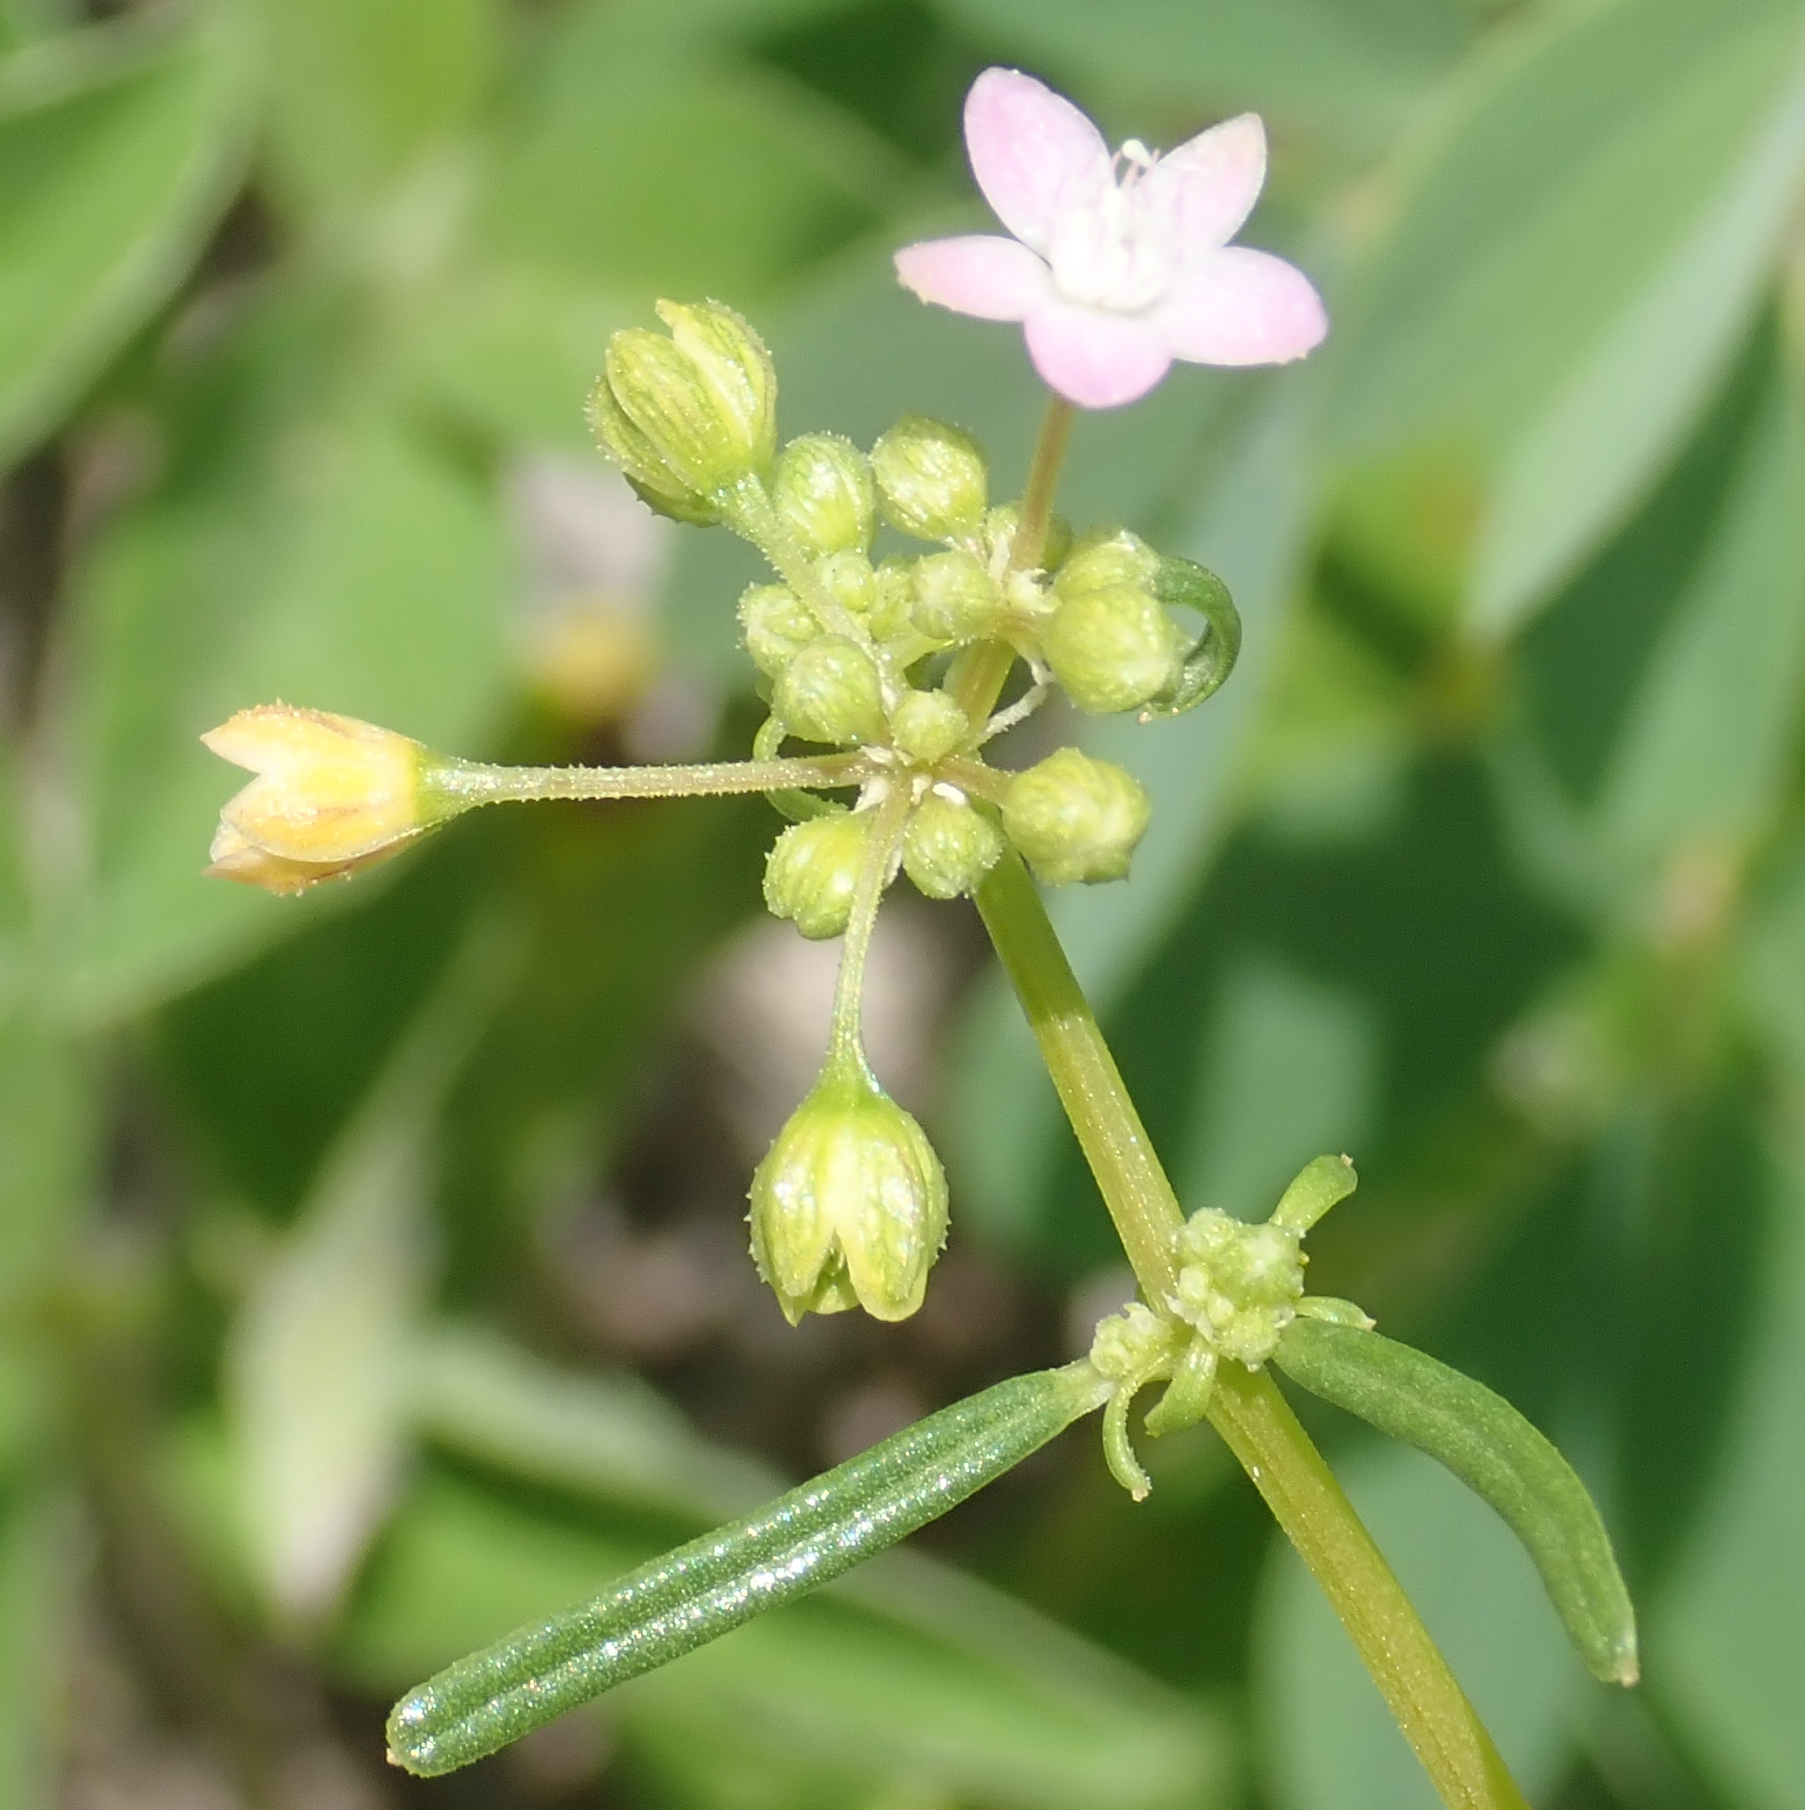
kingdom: Plantae
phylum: Tracheophyta
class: Magnoliopsida
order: Caryophyllales
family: Gisekiaceae
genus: Gisekia
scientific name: Gisekia africana
